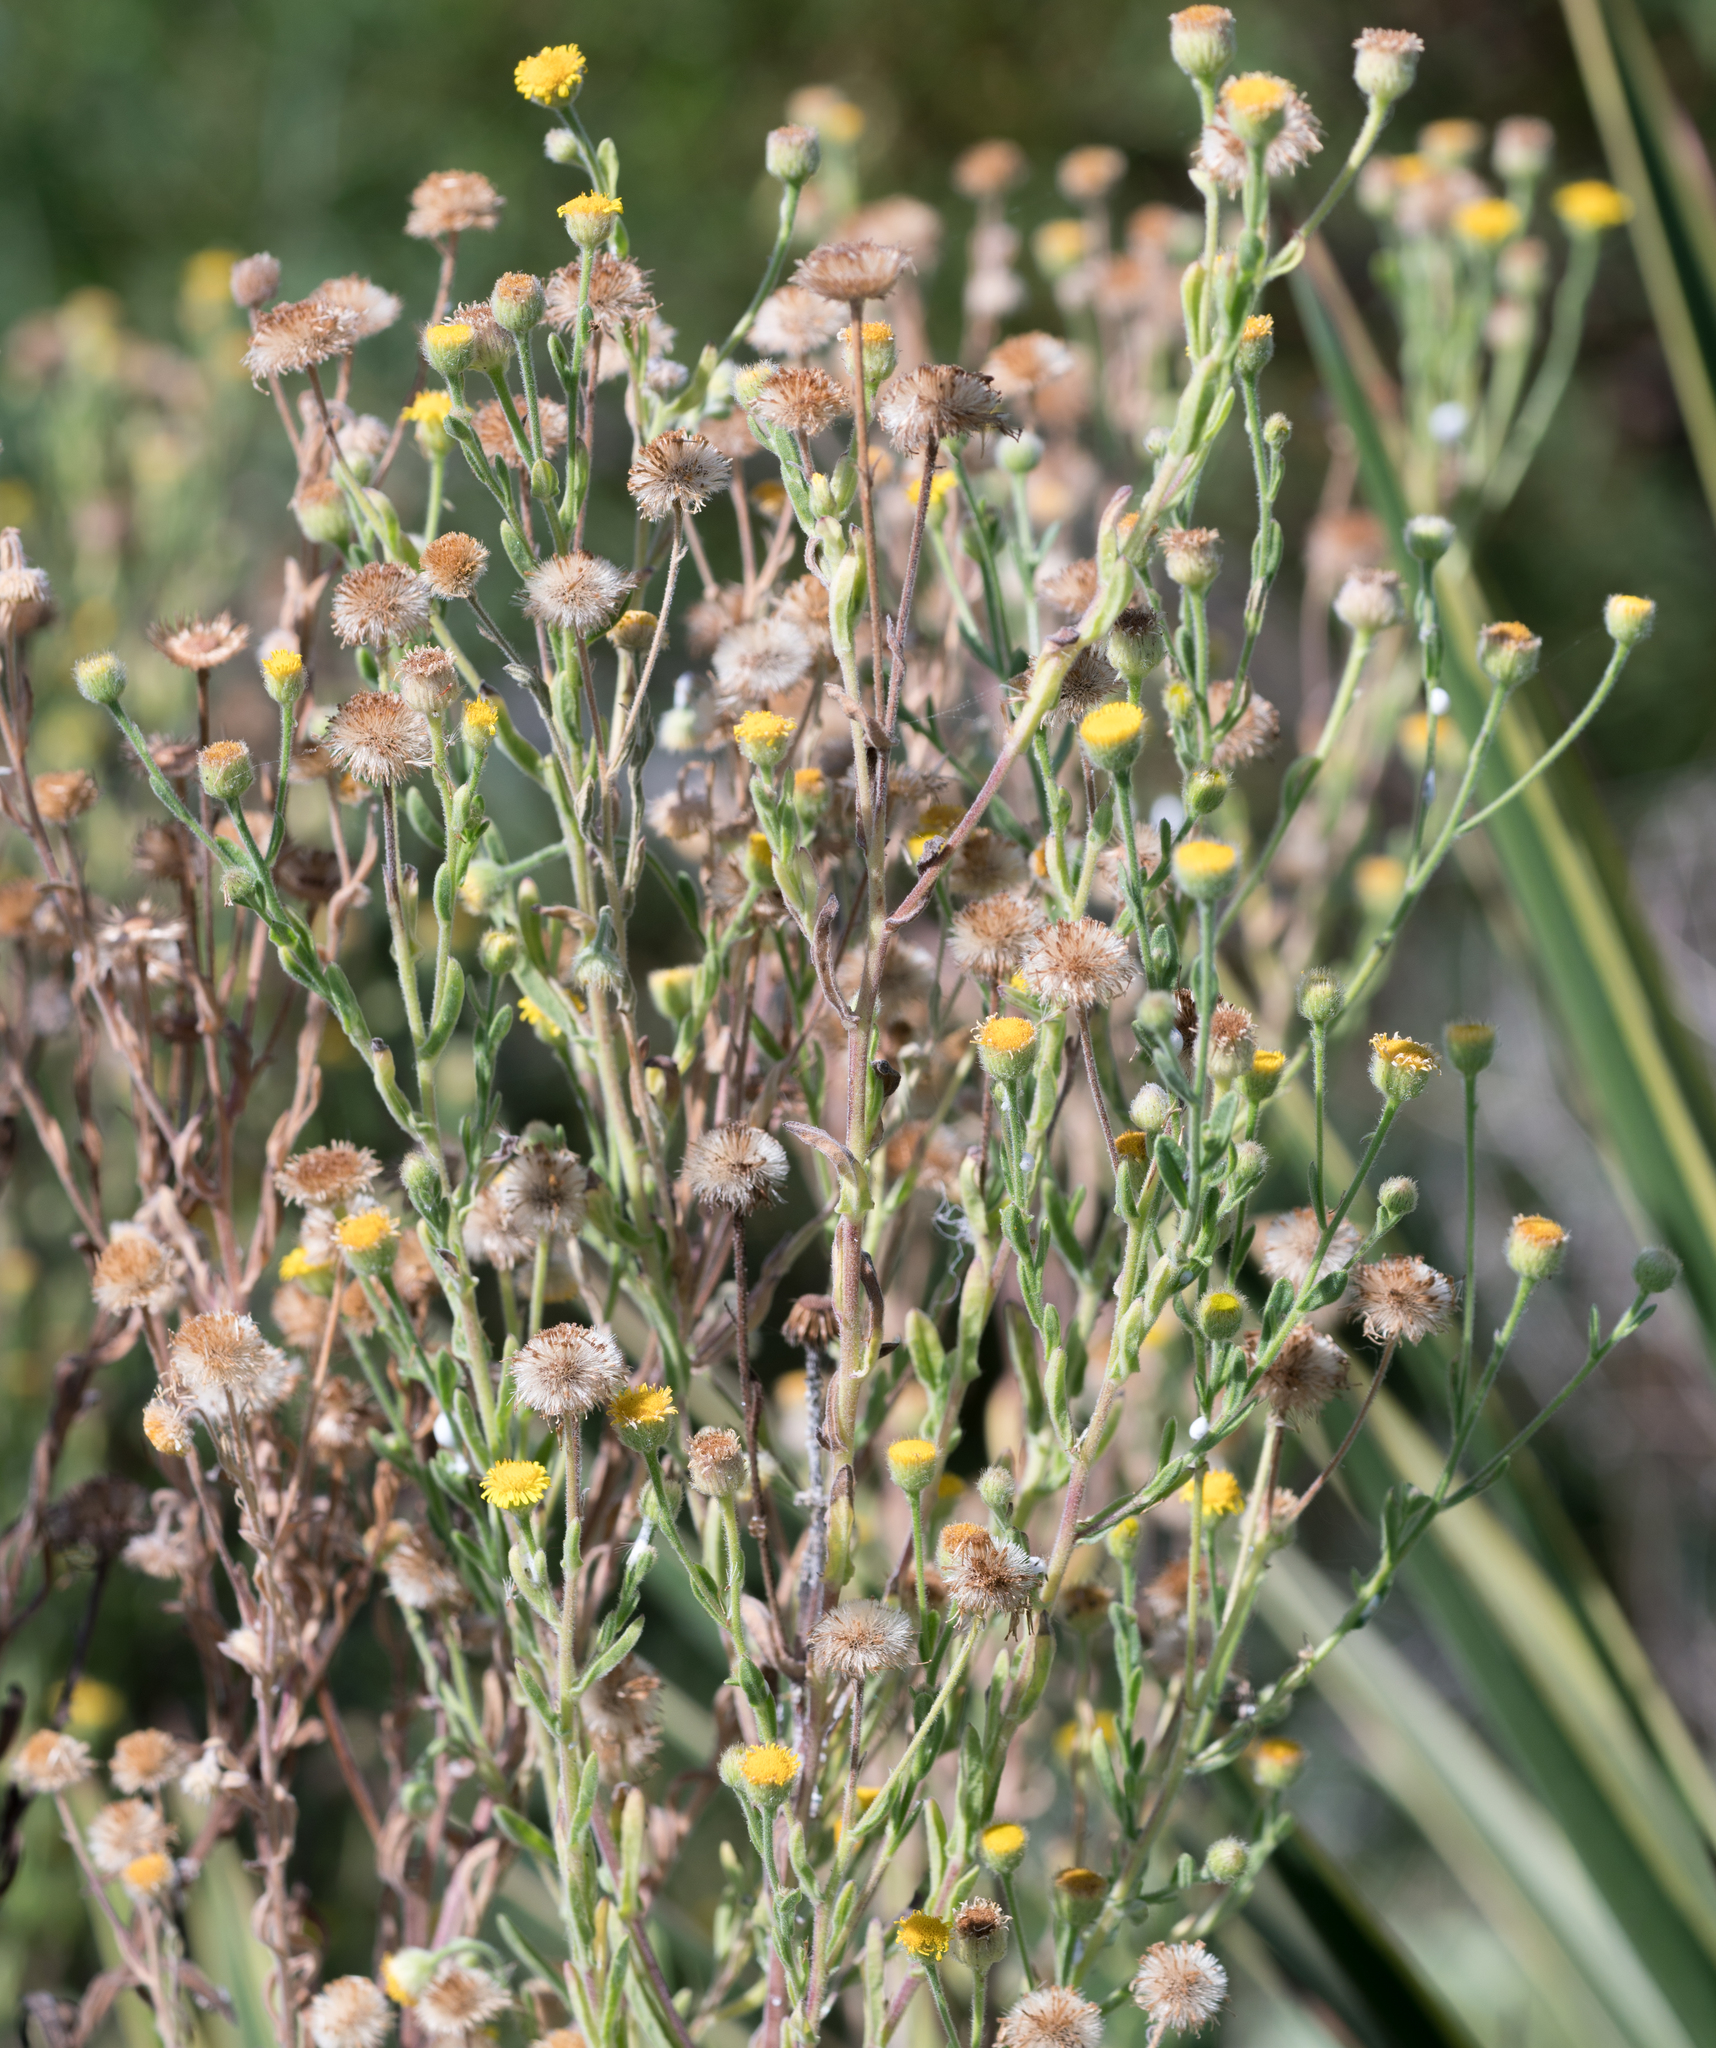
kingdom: Plantae
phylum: Tracheophyta
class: Magnoliopsida
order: Asterales
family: Asteraceae
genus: Pulicaria
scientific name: Pulicaria paludosa
